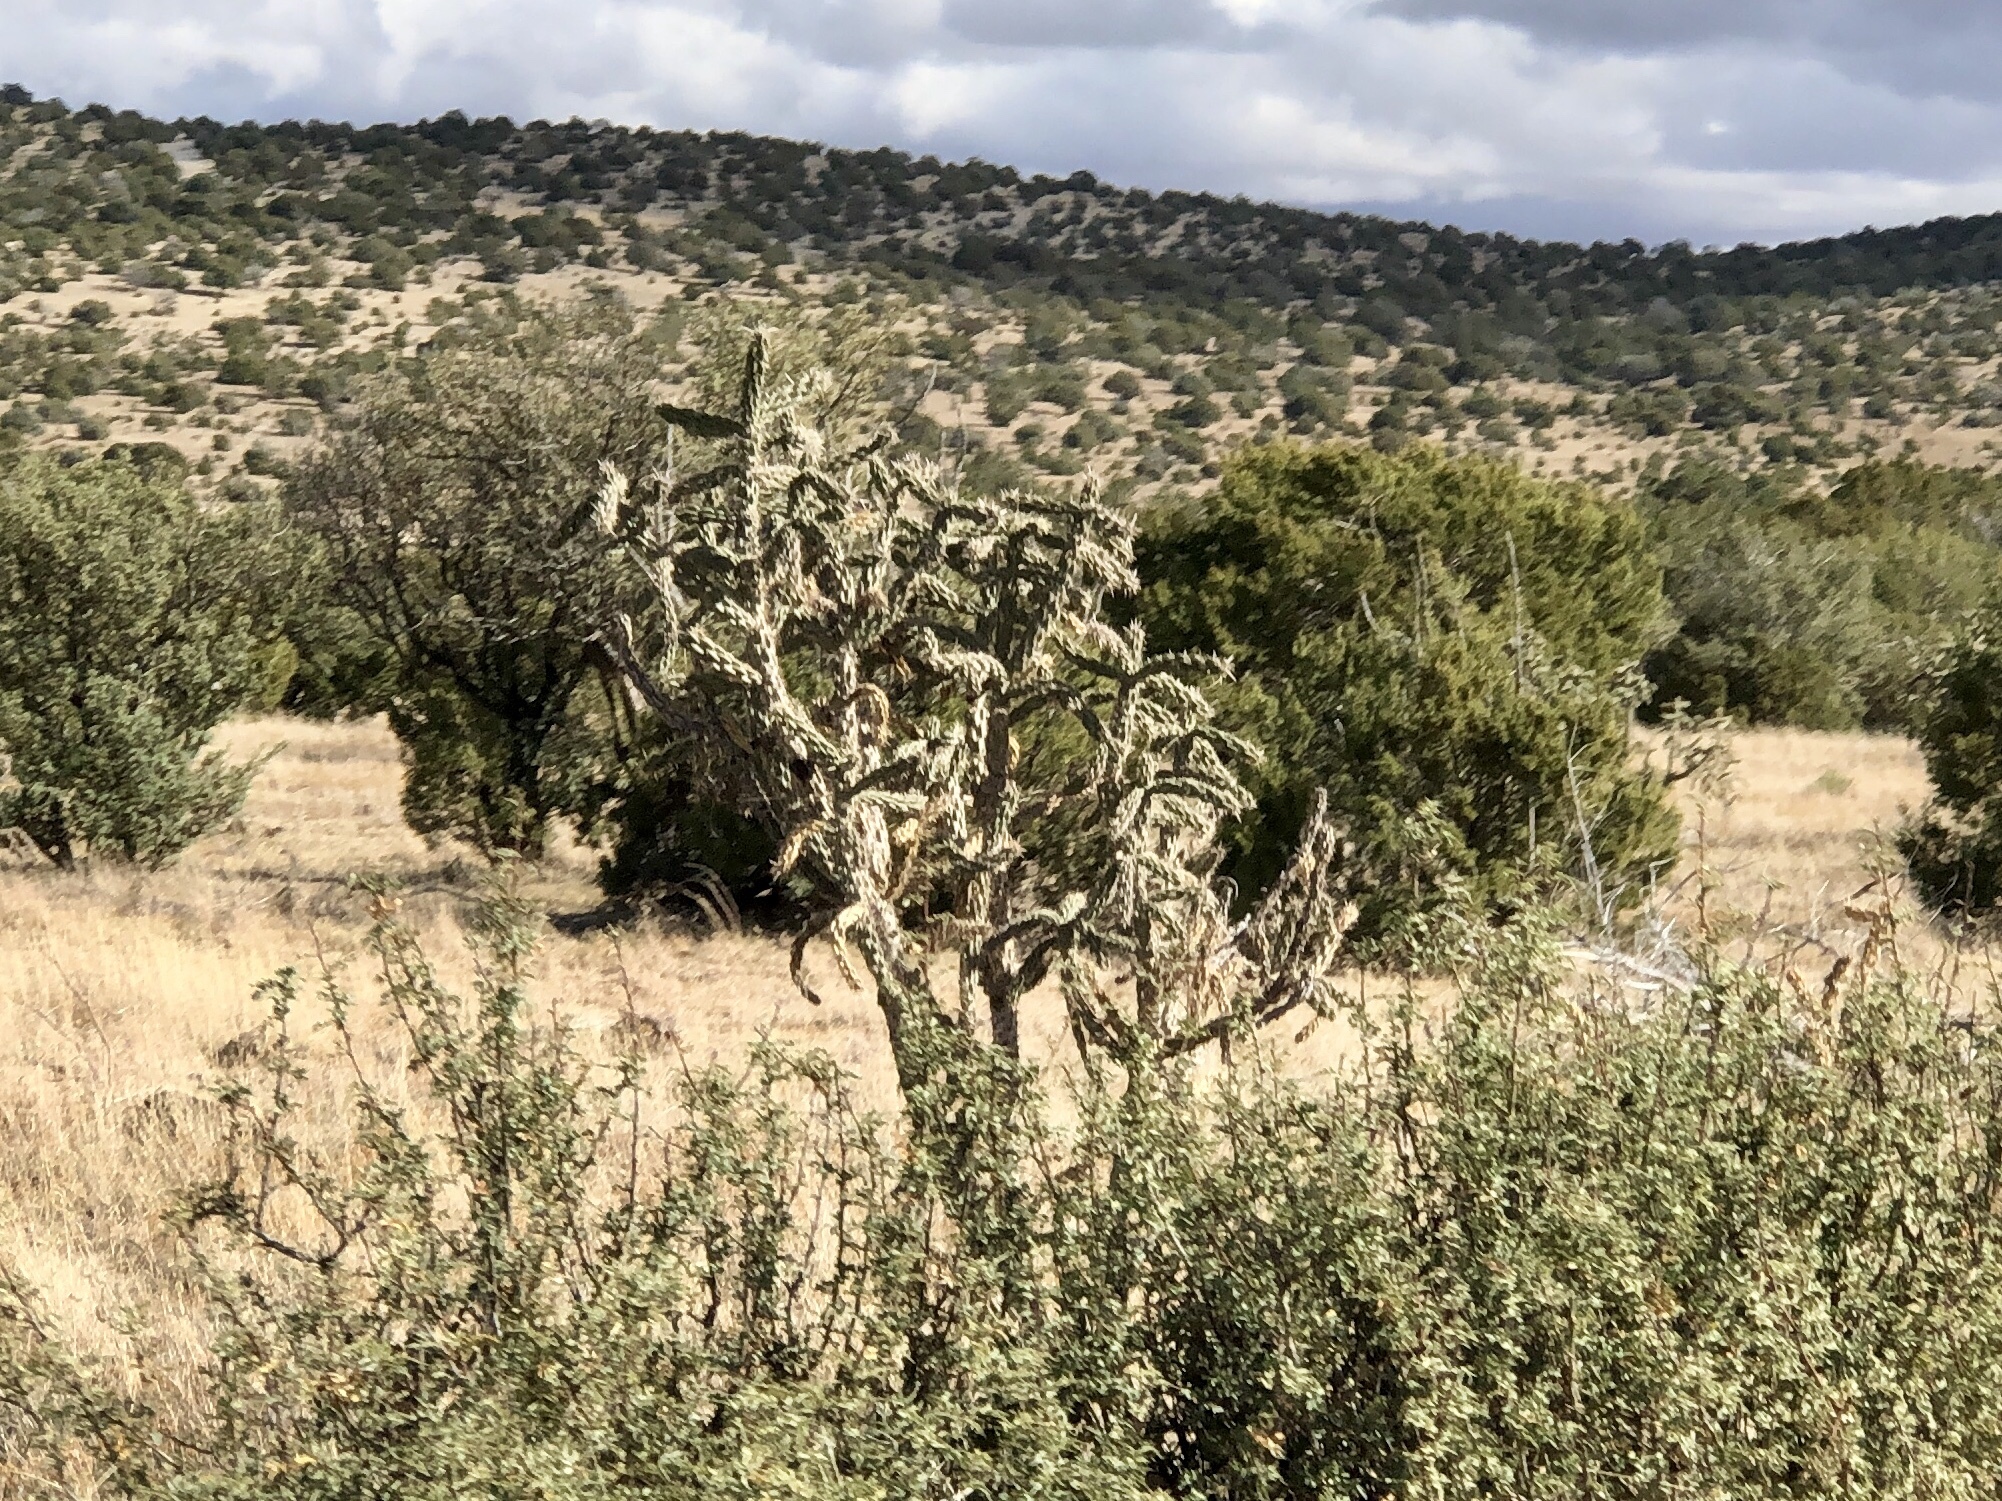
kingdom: Plantae
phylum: Tracheophyta
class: Magnoliopsida
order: Caryophyllales
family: Cactaceae
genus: Cylindropuntia
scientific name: Cylindropuntia imbricata
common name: Candelabrum cactus
